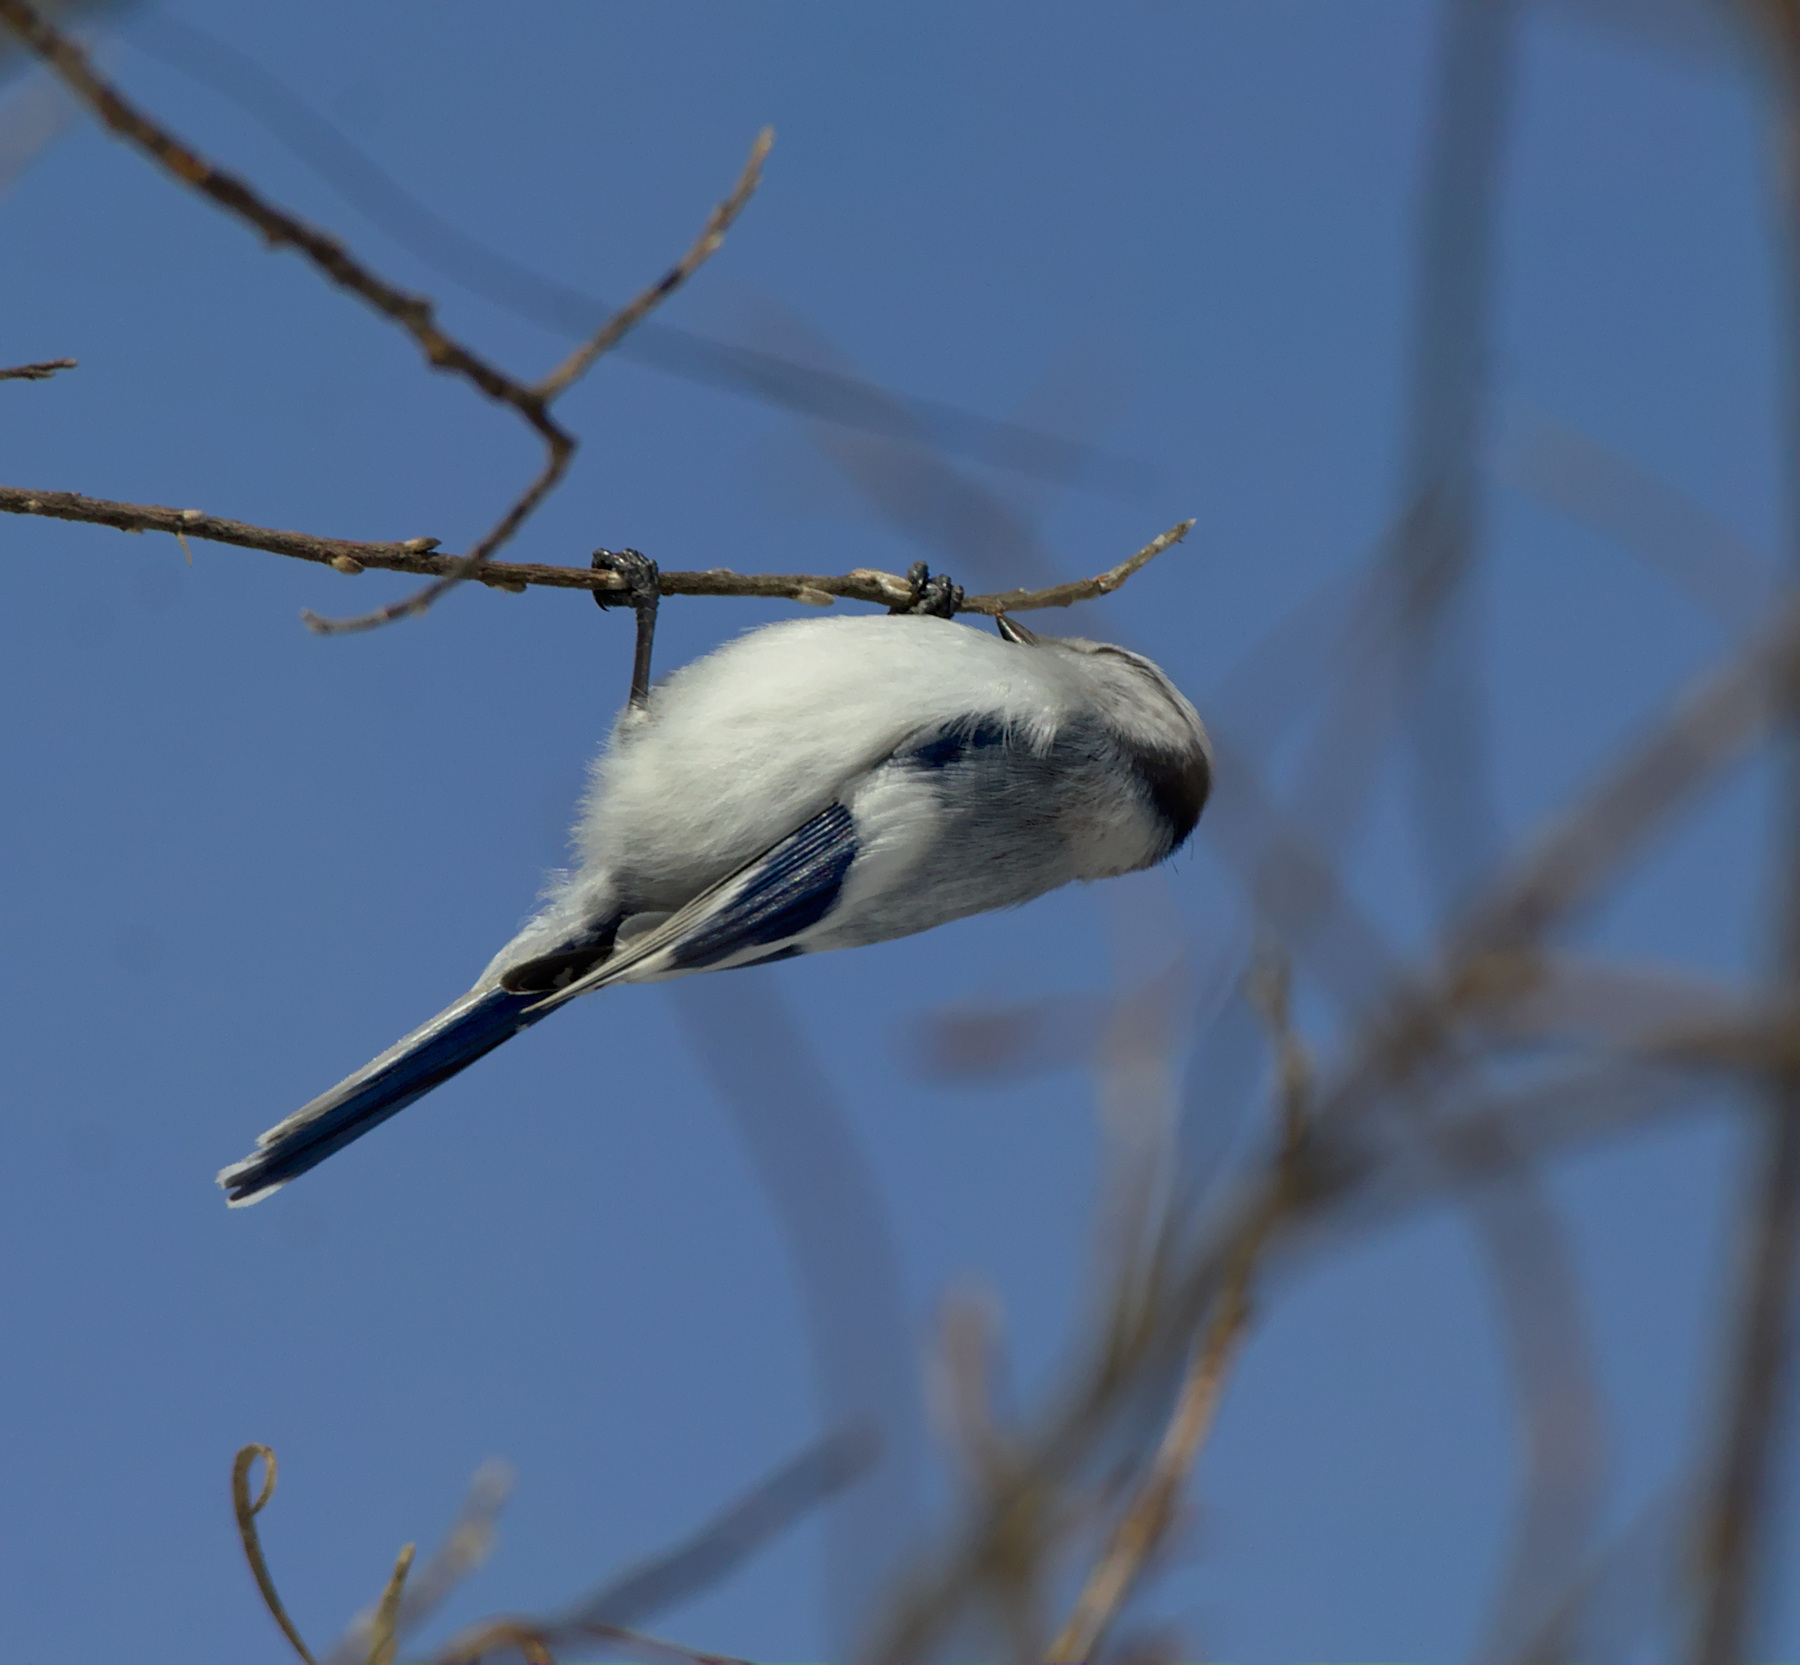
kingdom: Animalia
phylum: Chordata
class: Aves
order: Passeriformes
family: Paridae
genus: Cyanistes
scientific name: Cyanistes cyanus
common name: Azure tit
